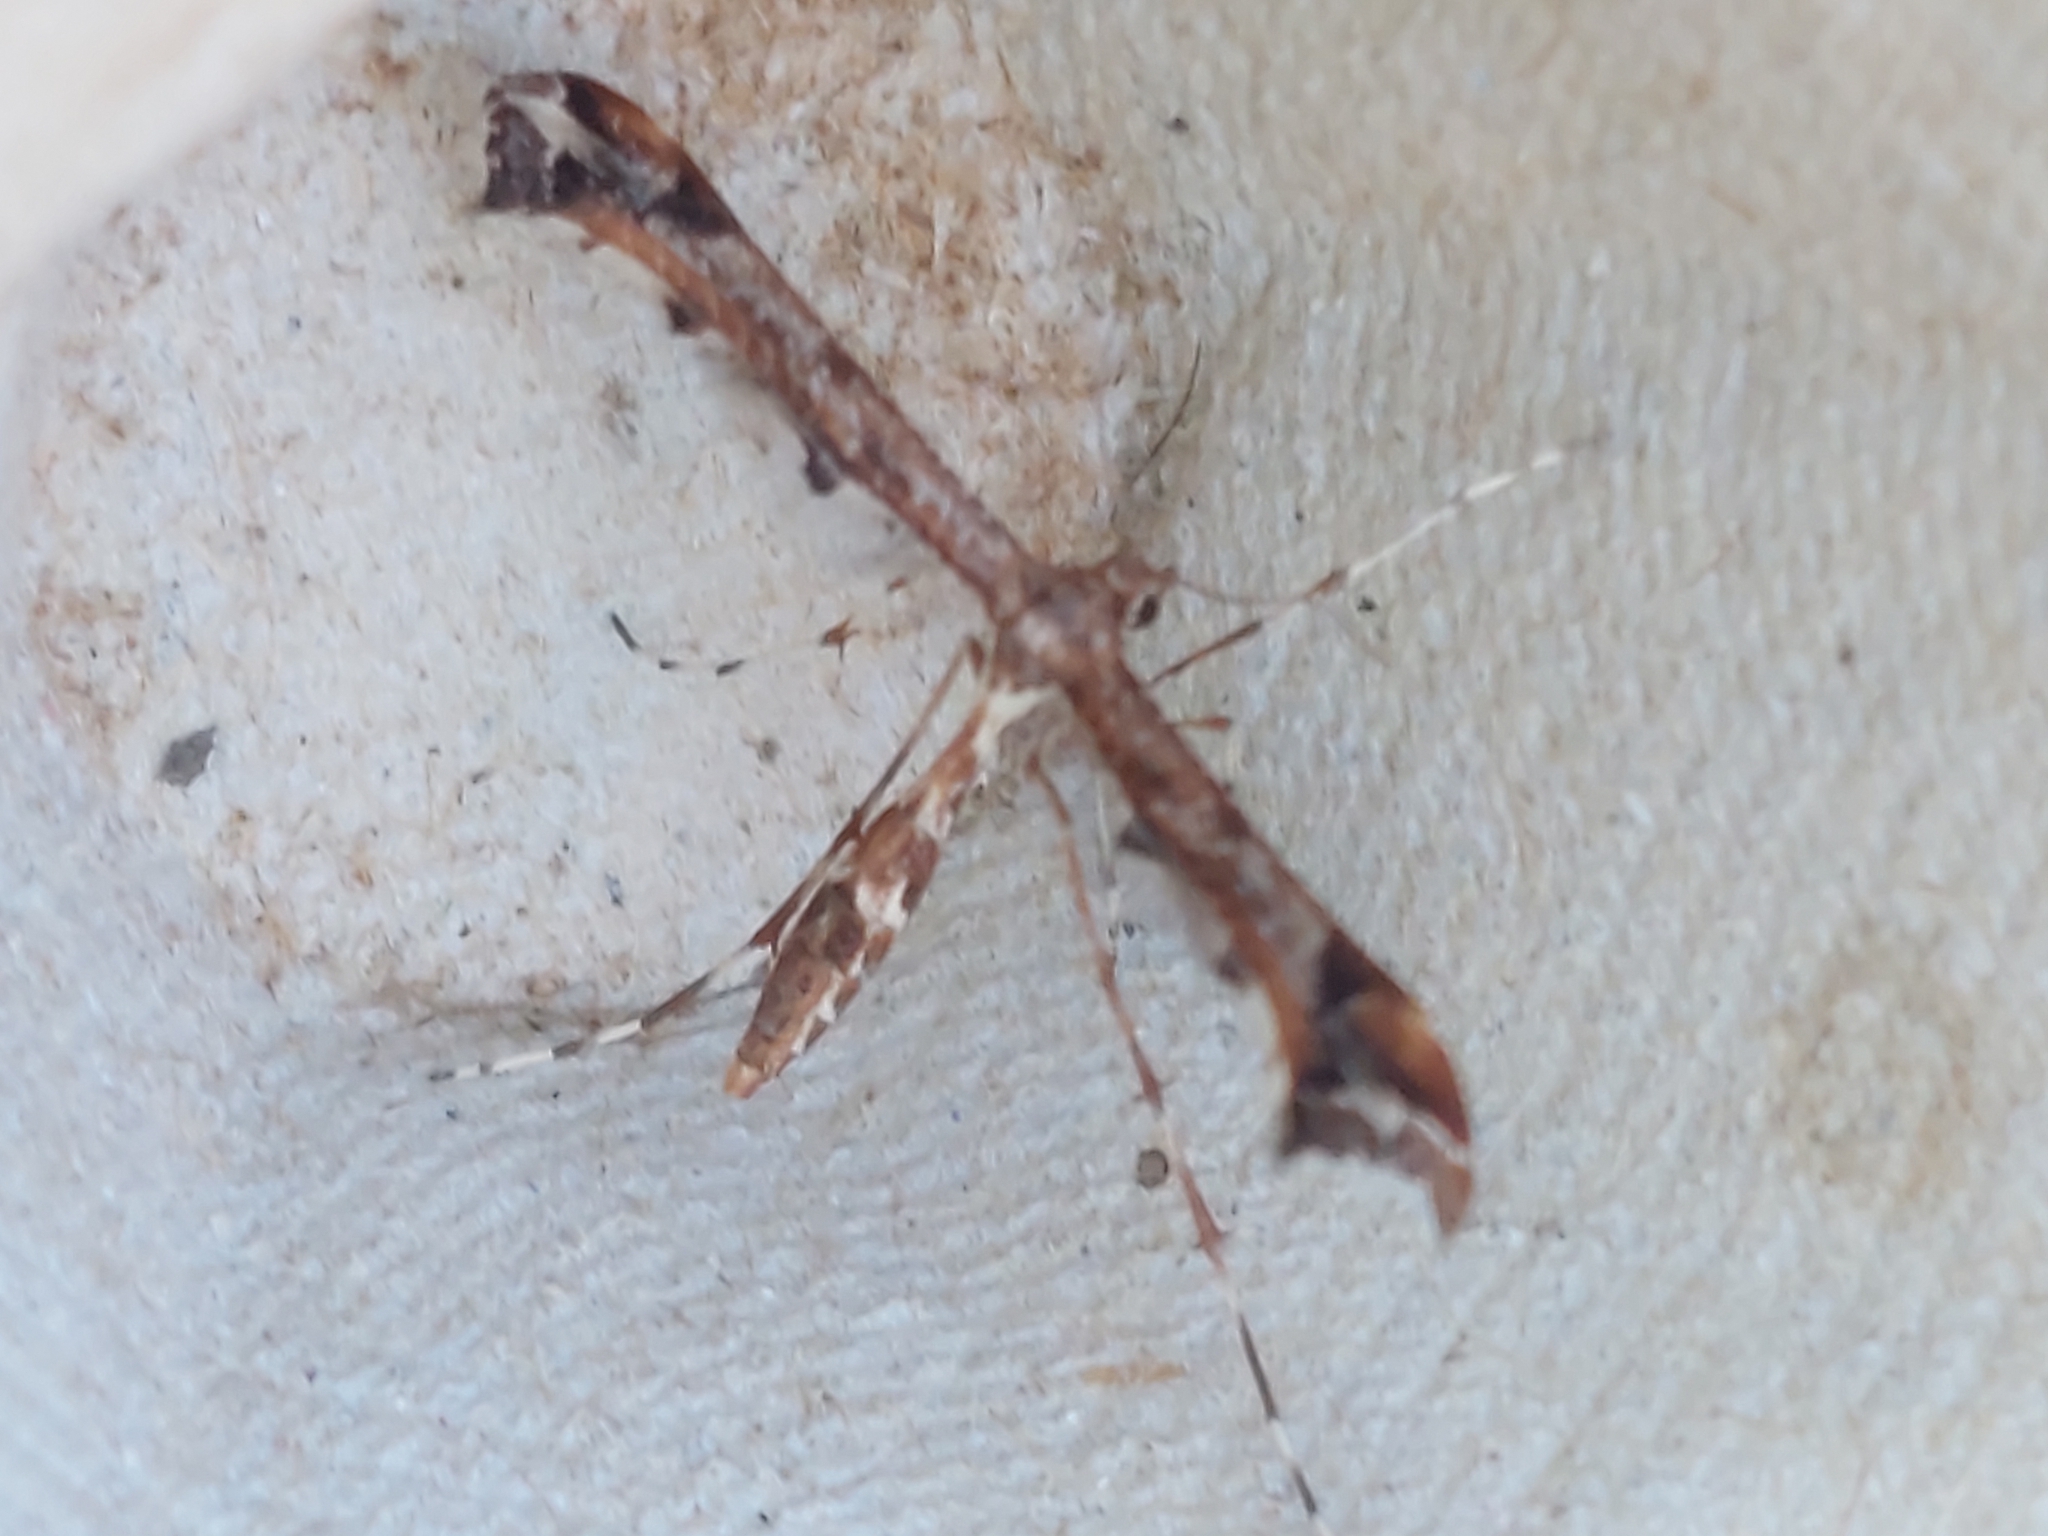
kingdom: Animalia
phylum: Arthropoda
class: Insecta
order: Lepidoptera
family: Pterophoridae
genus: Amblyptilia
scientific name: Amblyptilia acanthadactyla
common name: Beautiful plume
